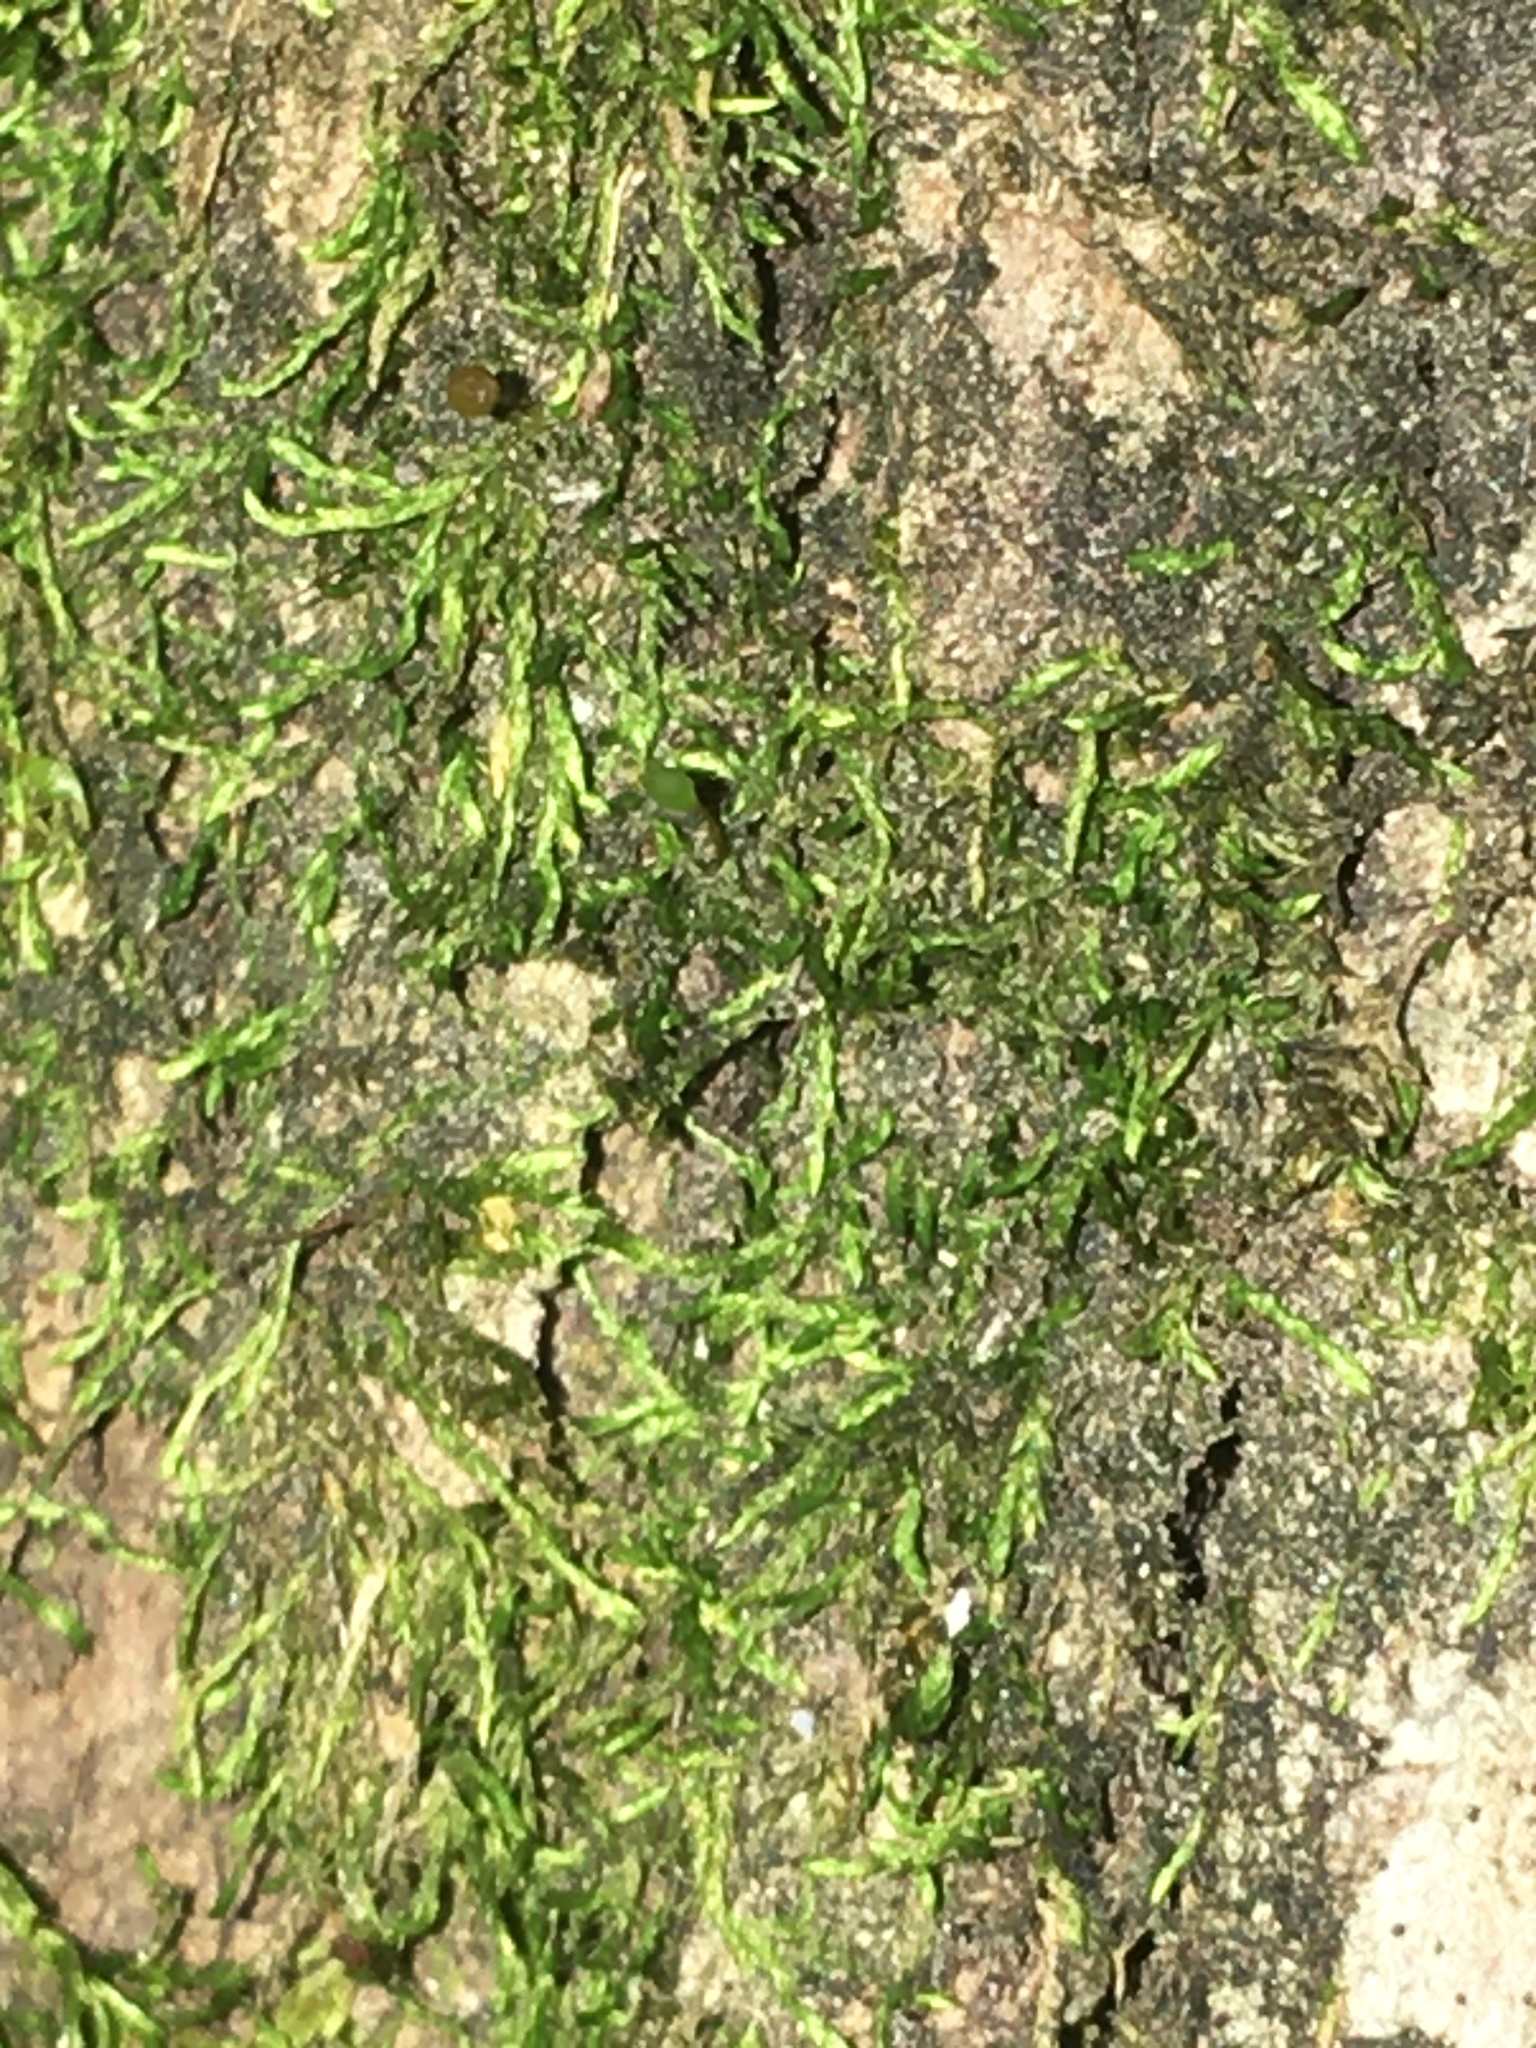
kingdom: Plantae
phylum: Bryophyta
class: Bryopsida
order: Hypnales
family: Leucodontaceae
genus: Leucodon
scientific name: Leucodon julaceus
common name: Smooth hook moss
